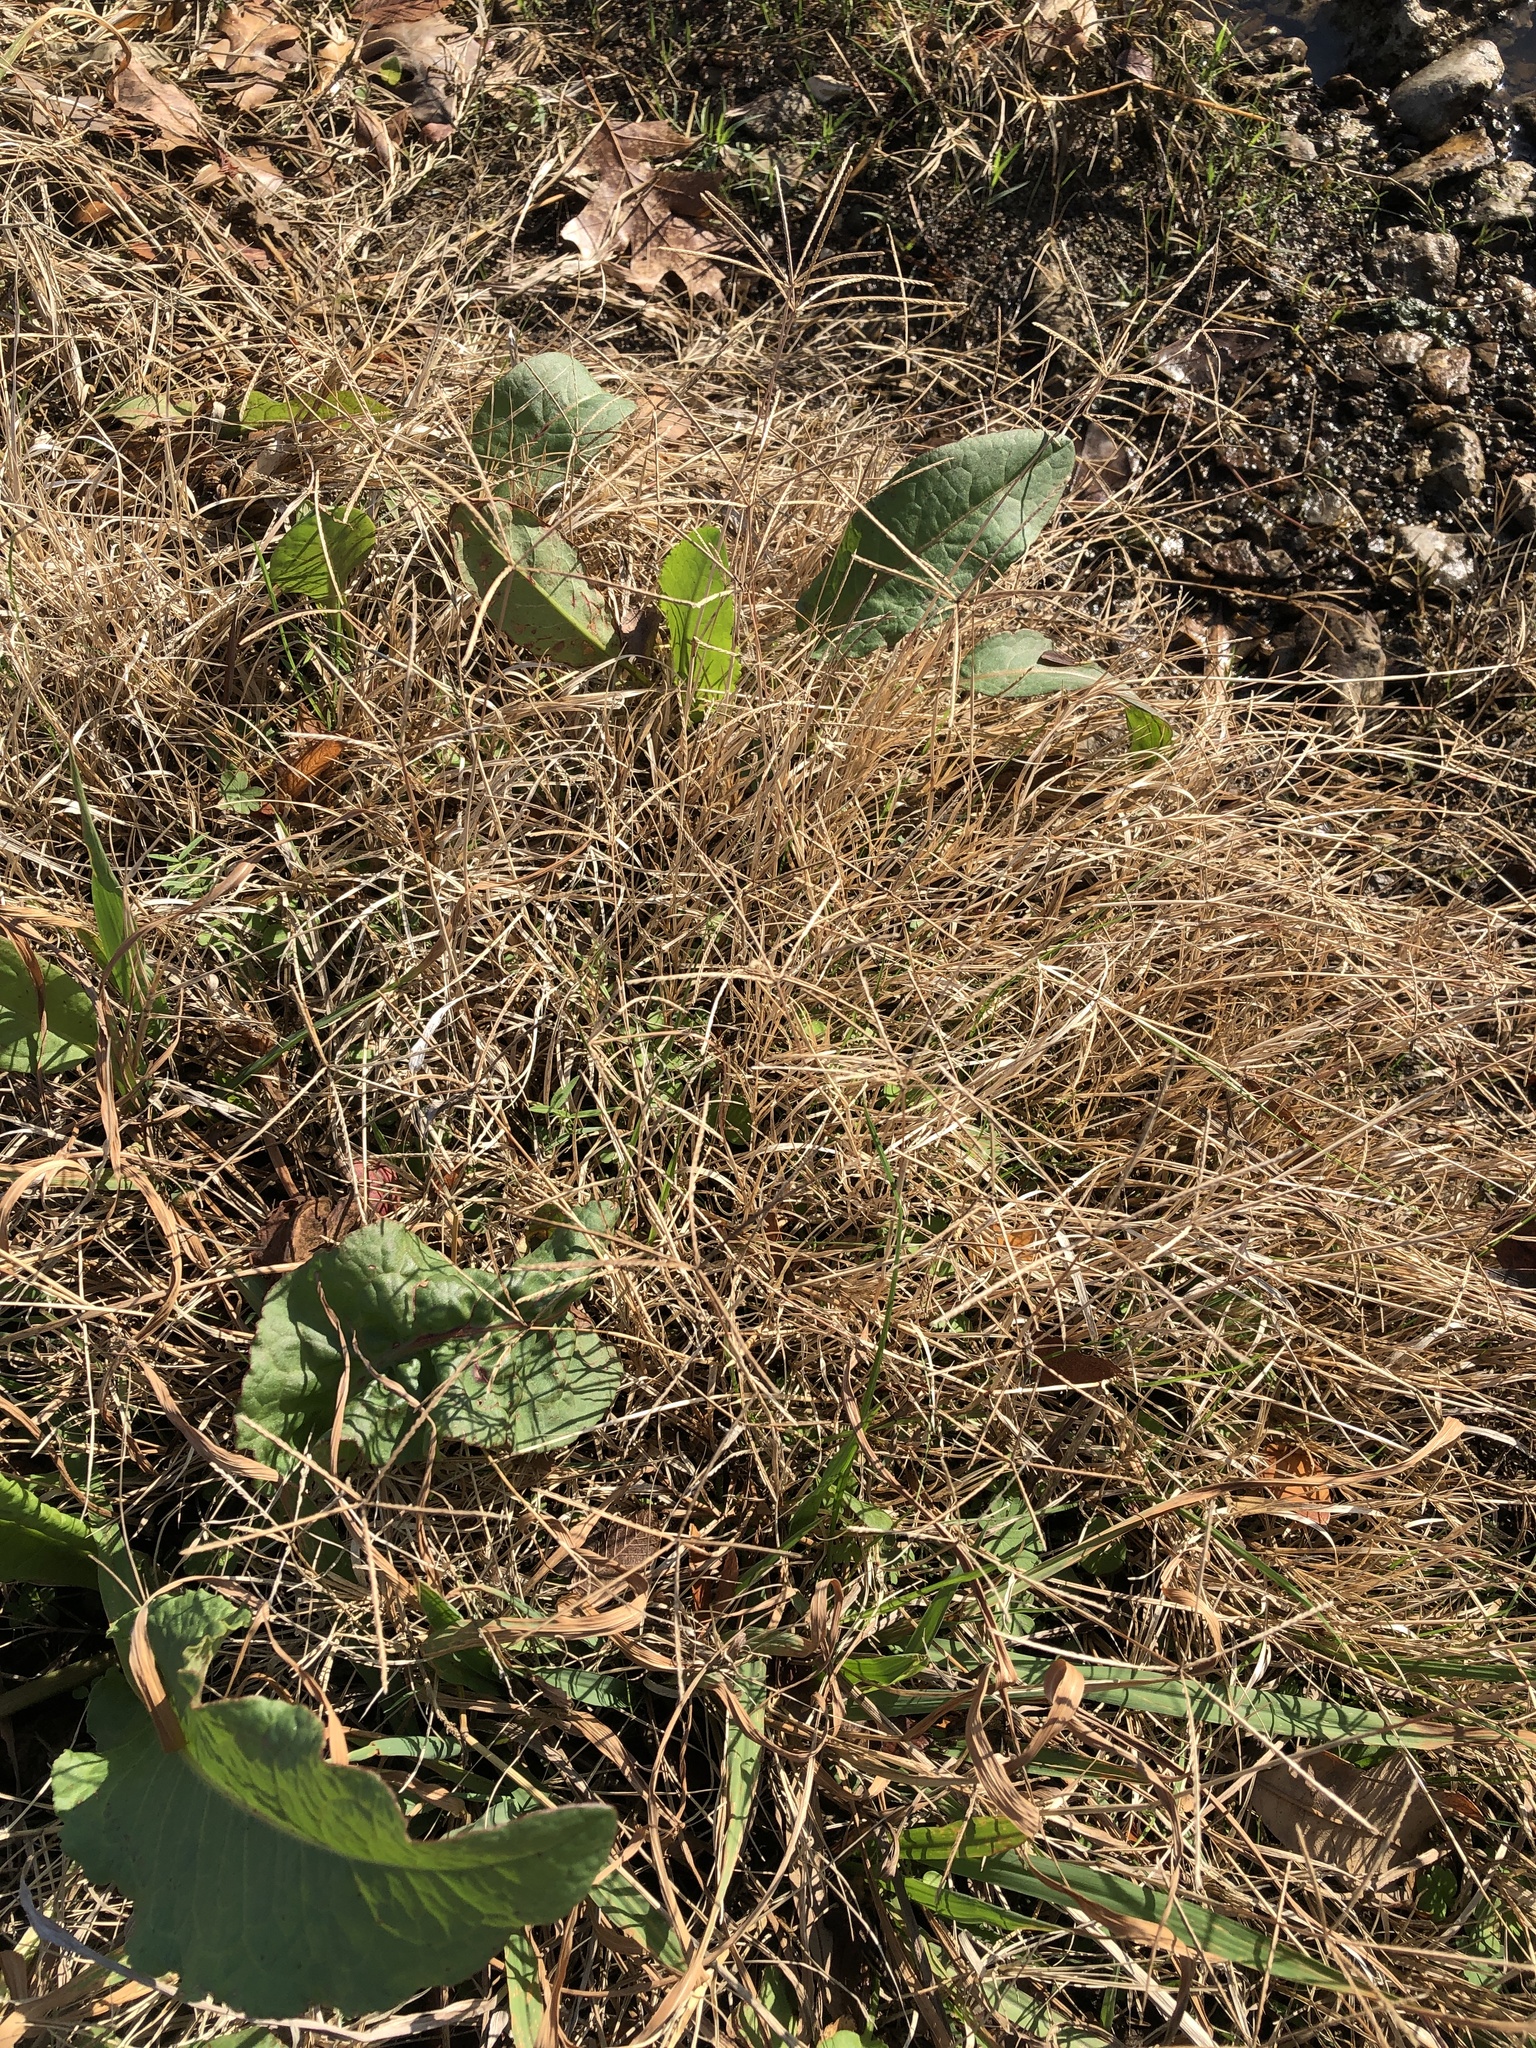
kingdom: Plantae
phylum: Tracheophyta
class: Liliopsida
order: Poales
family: Poaceae
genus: Cynodon
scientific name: Cynodon dactylon
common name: Bermuda grass
